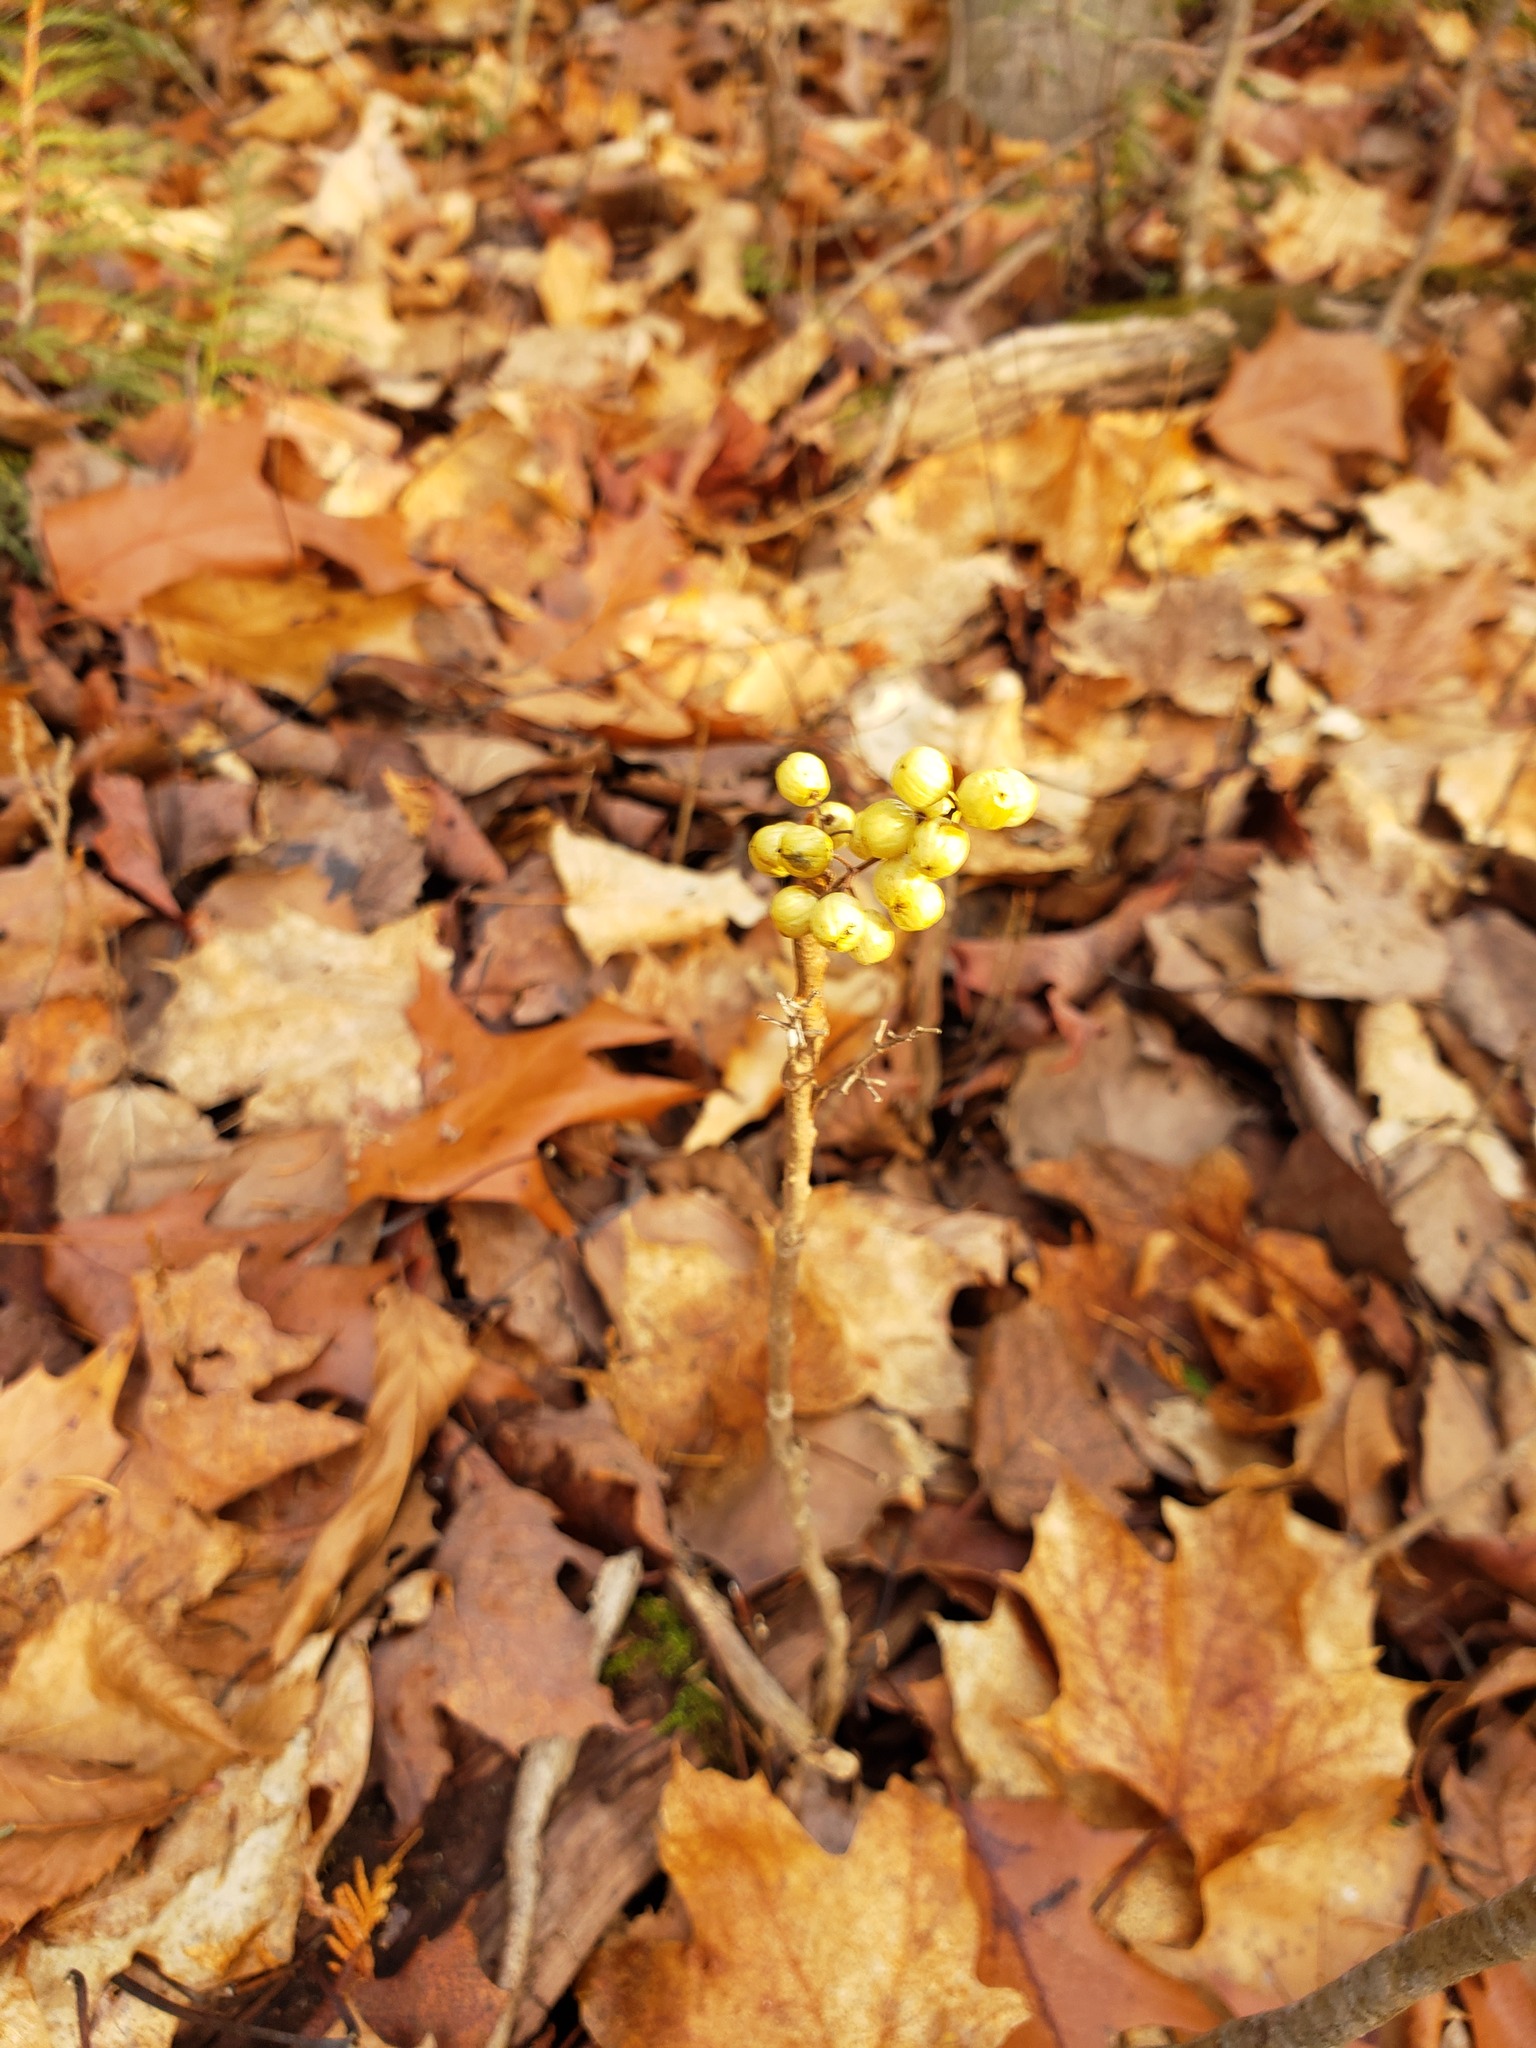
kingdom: Plantae
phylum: Tracheophyta
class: Magnoliopsida
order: Sapindales
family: Anacardiaceae
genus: Toxicodendron
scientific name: Toxicodendron rydbergii
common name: Rydberg's poison-ivy
